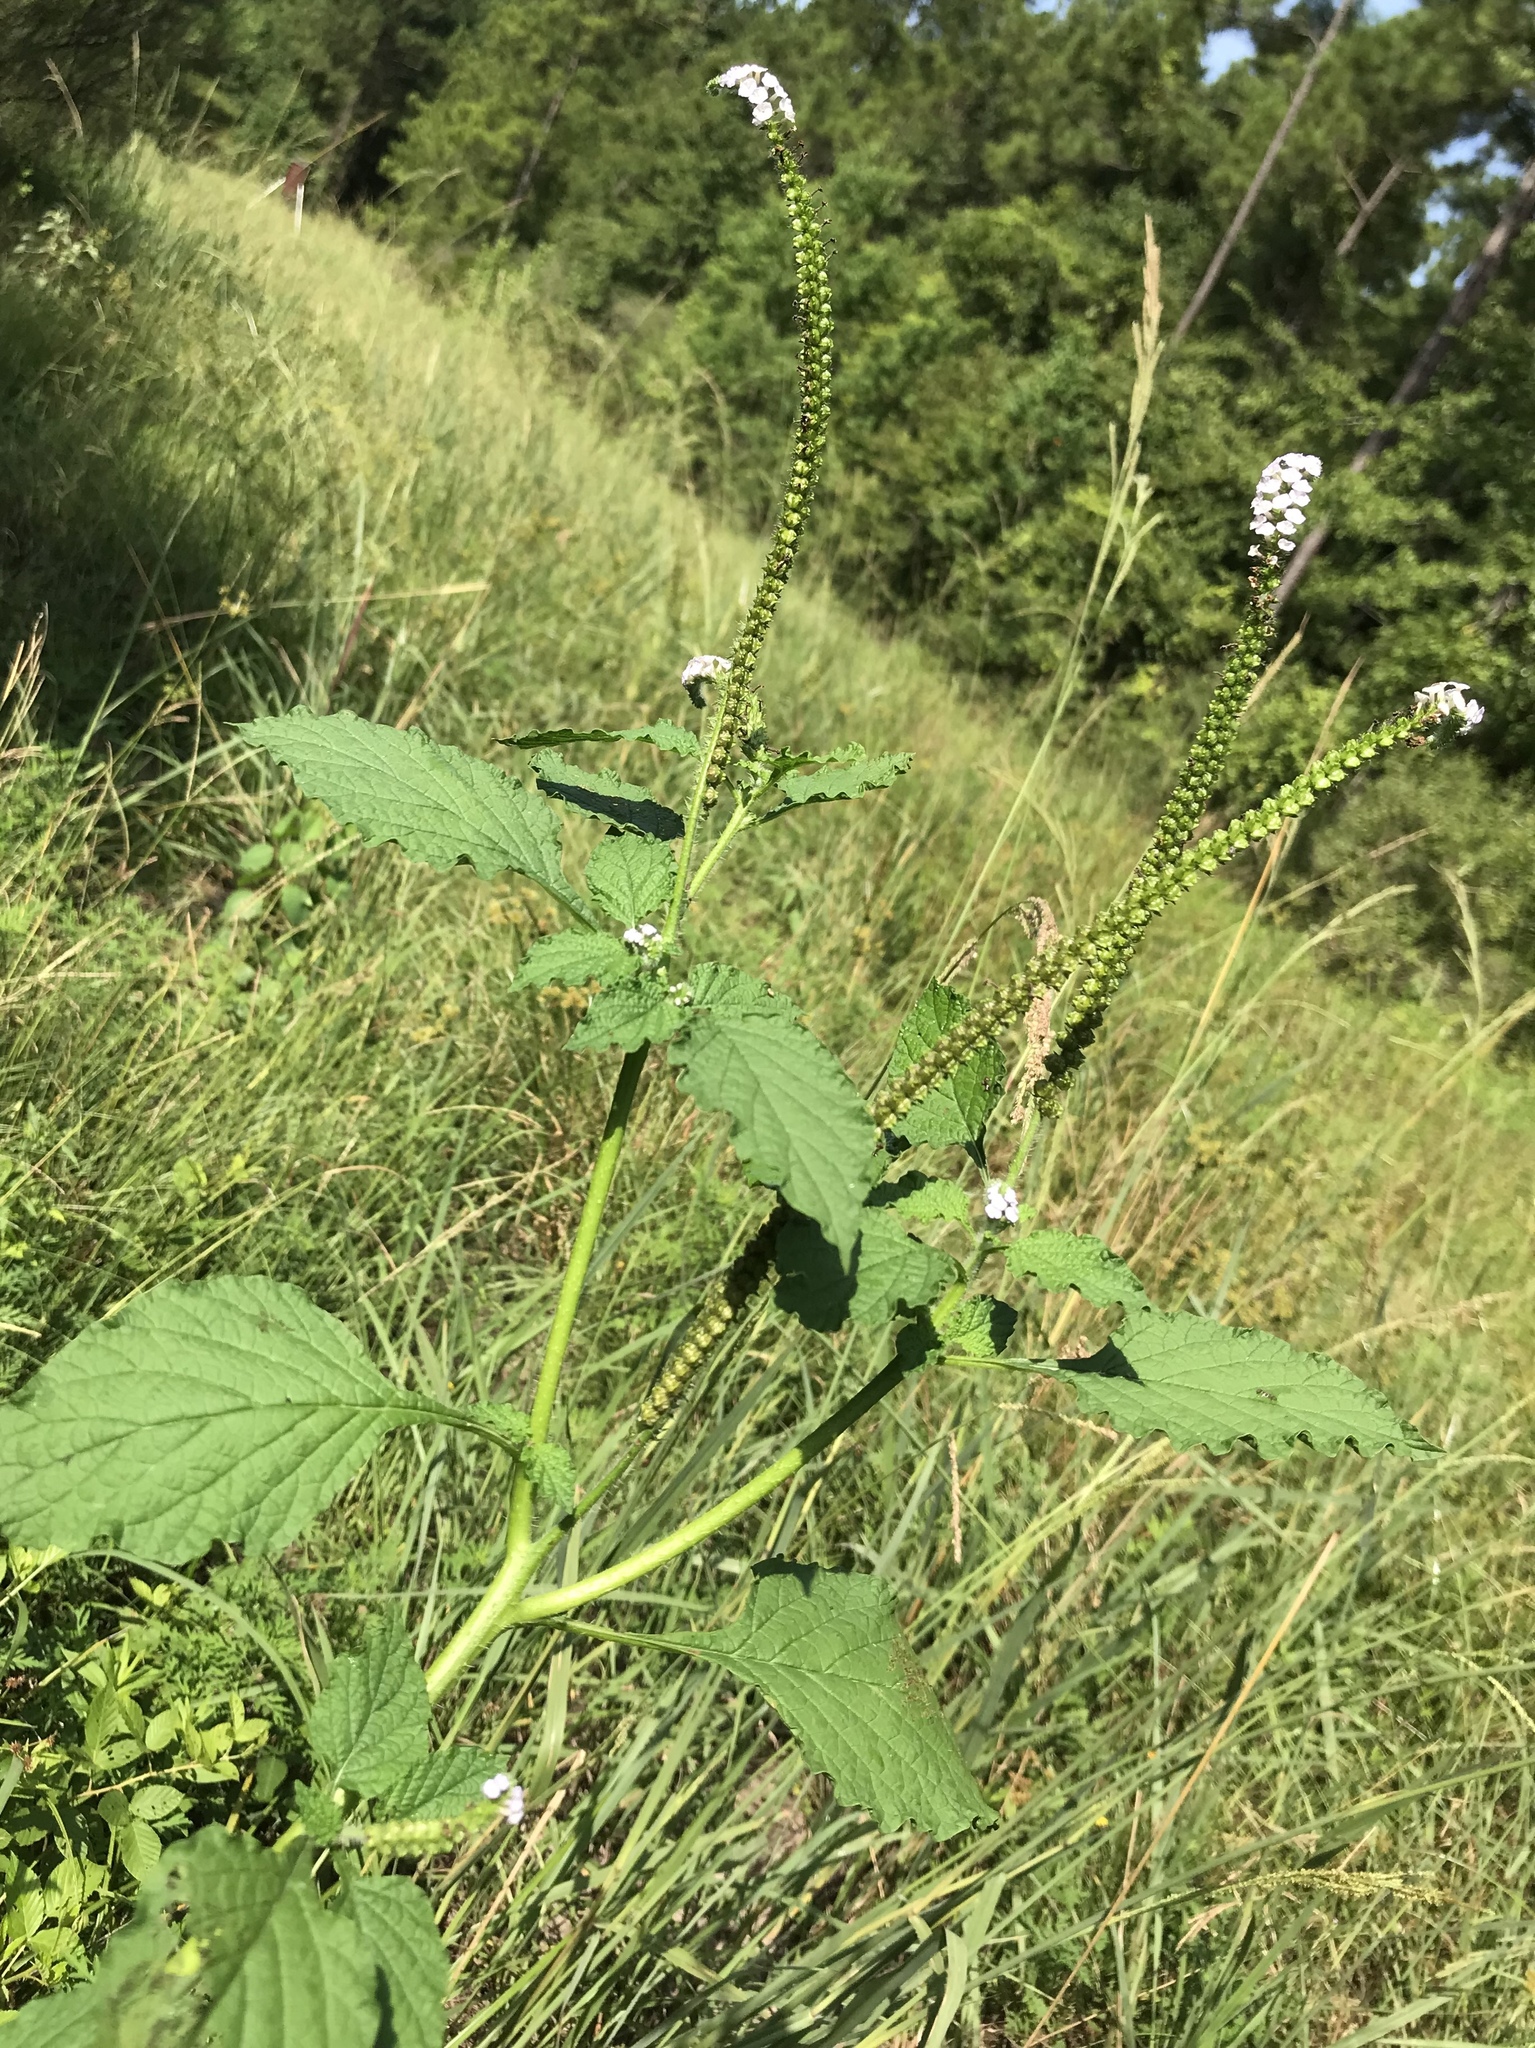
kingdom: Plantae
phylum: Tracheophyta
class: Magnoliopsida
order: Boraginales
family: Heliotropiaceae
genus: Heliotropium
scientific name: Heliotropium indicum
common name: Indian heliotrope
